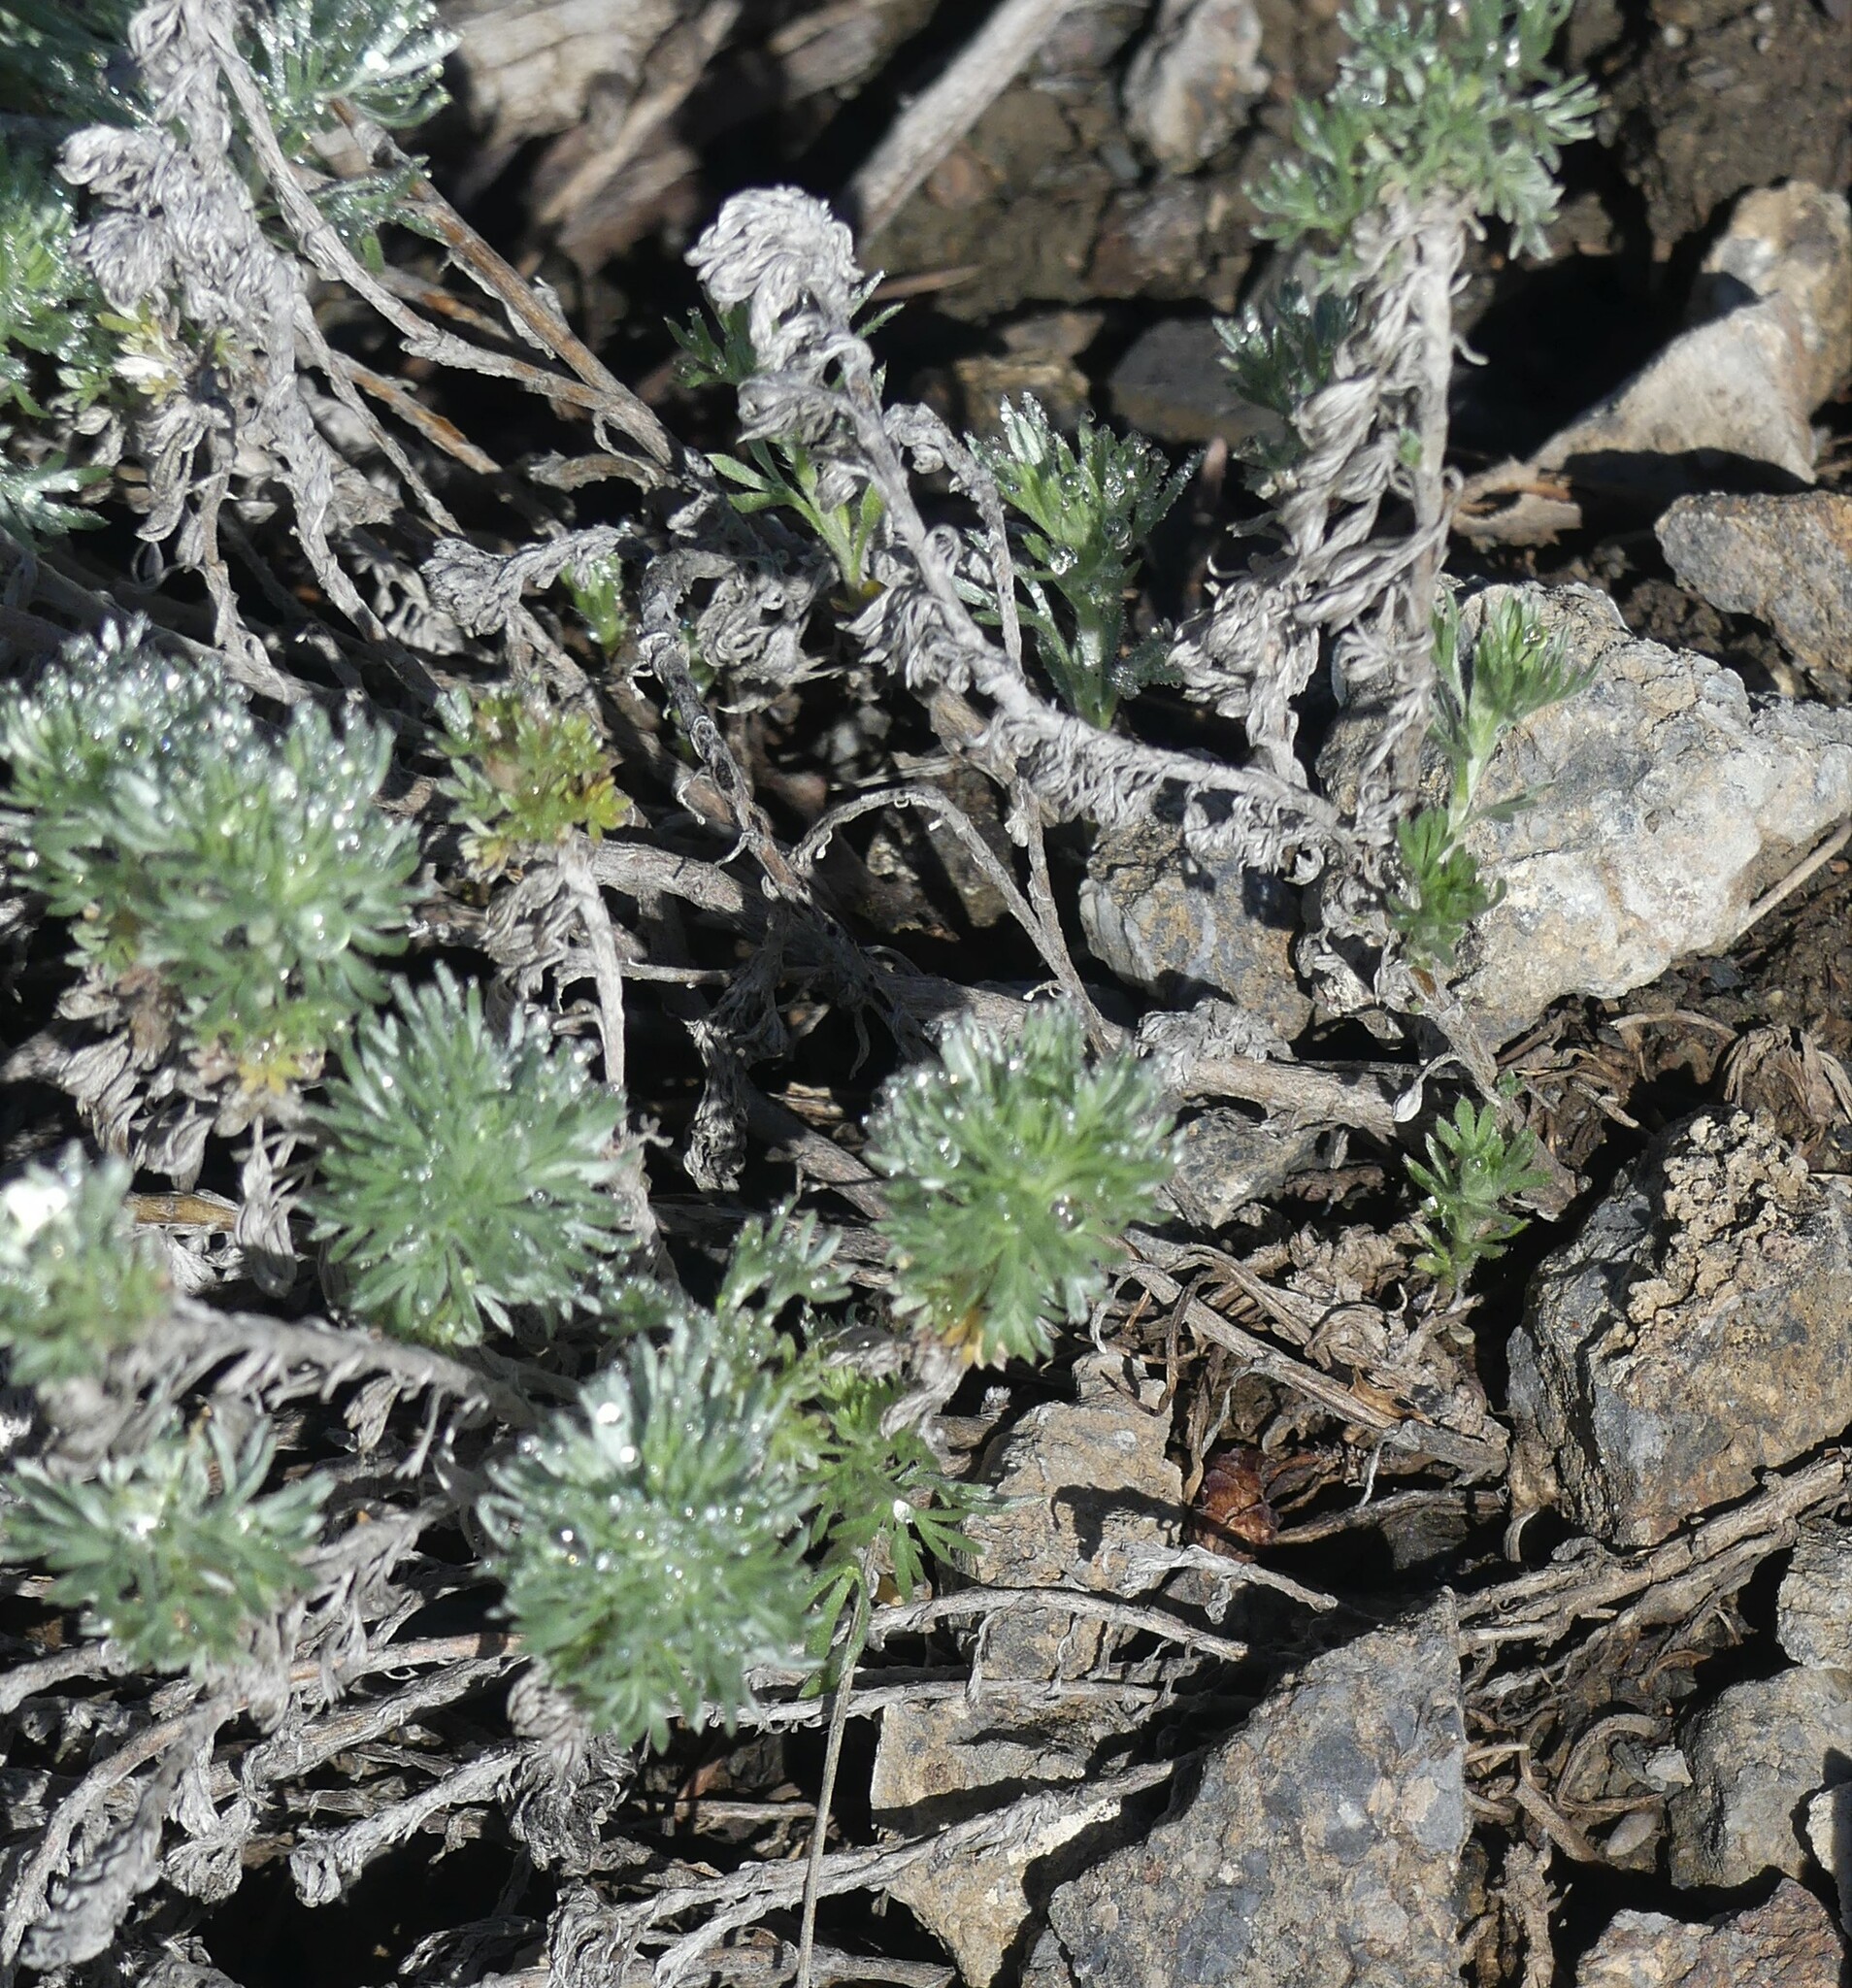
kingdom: Plantae
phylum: Tracheophyta
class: Magnoliopsida
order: Asterales
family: Asteraceae
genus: Artemisia
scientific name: Artemisia frigida
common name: Prairie sagewort
